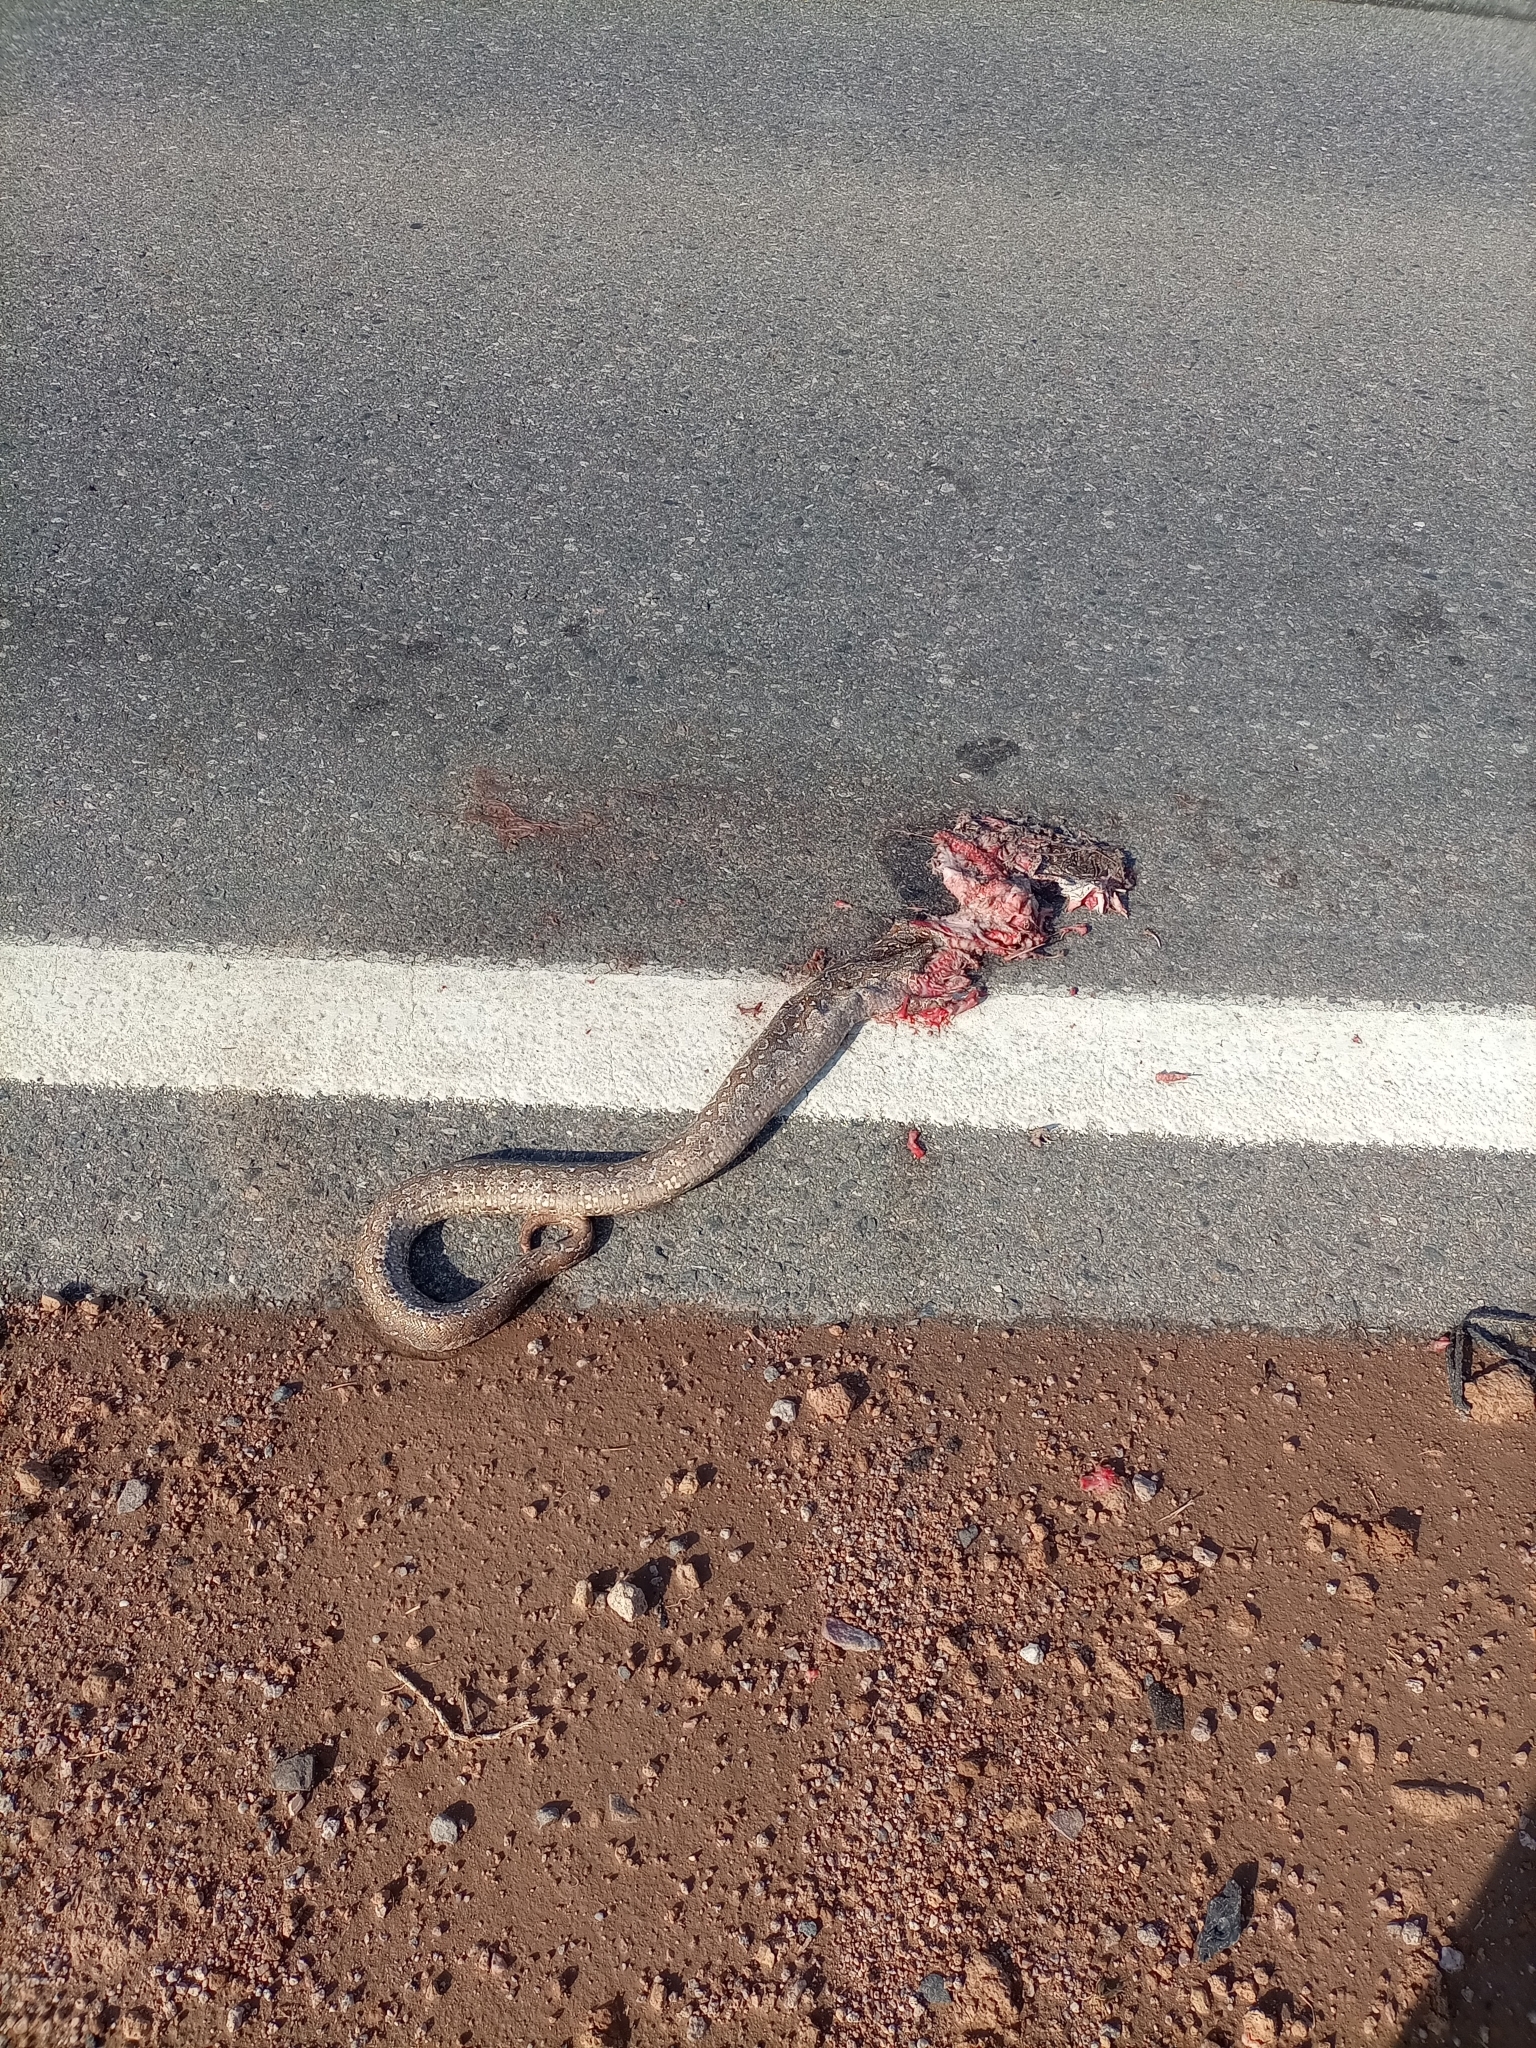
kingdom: Animalia
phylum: Chordata
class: Squamata
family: Boidae
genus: Boa
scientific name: Boa constrictor
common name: Boa constrictor
